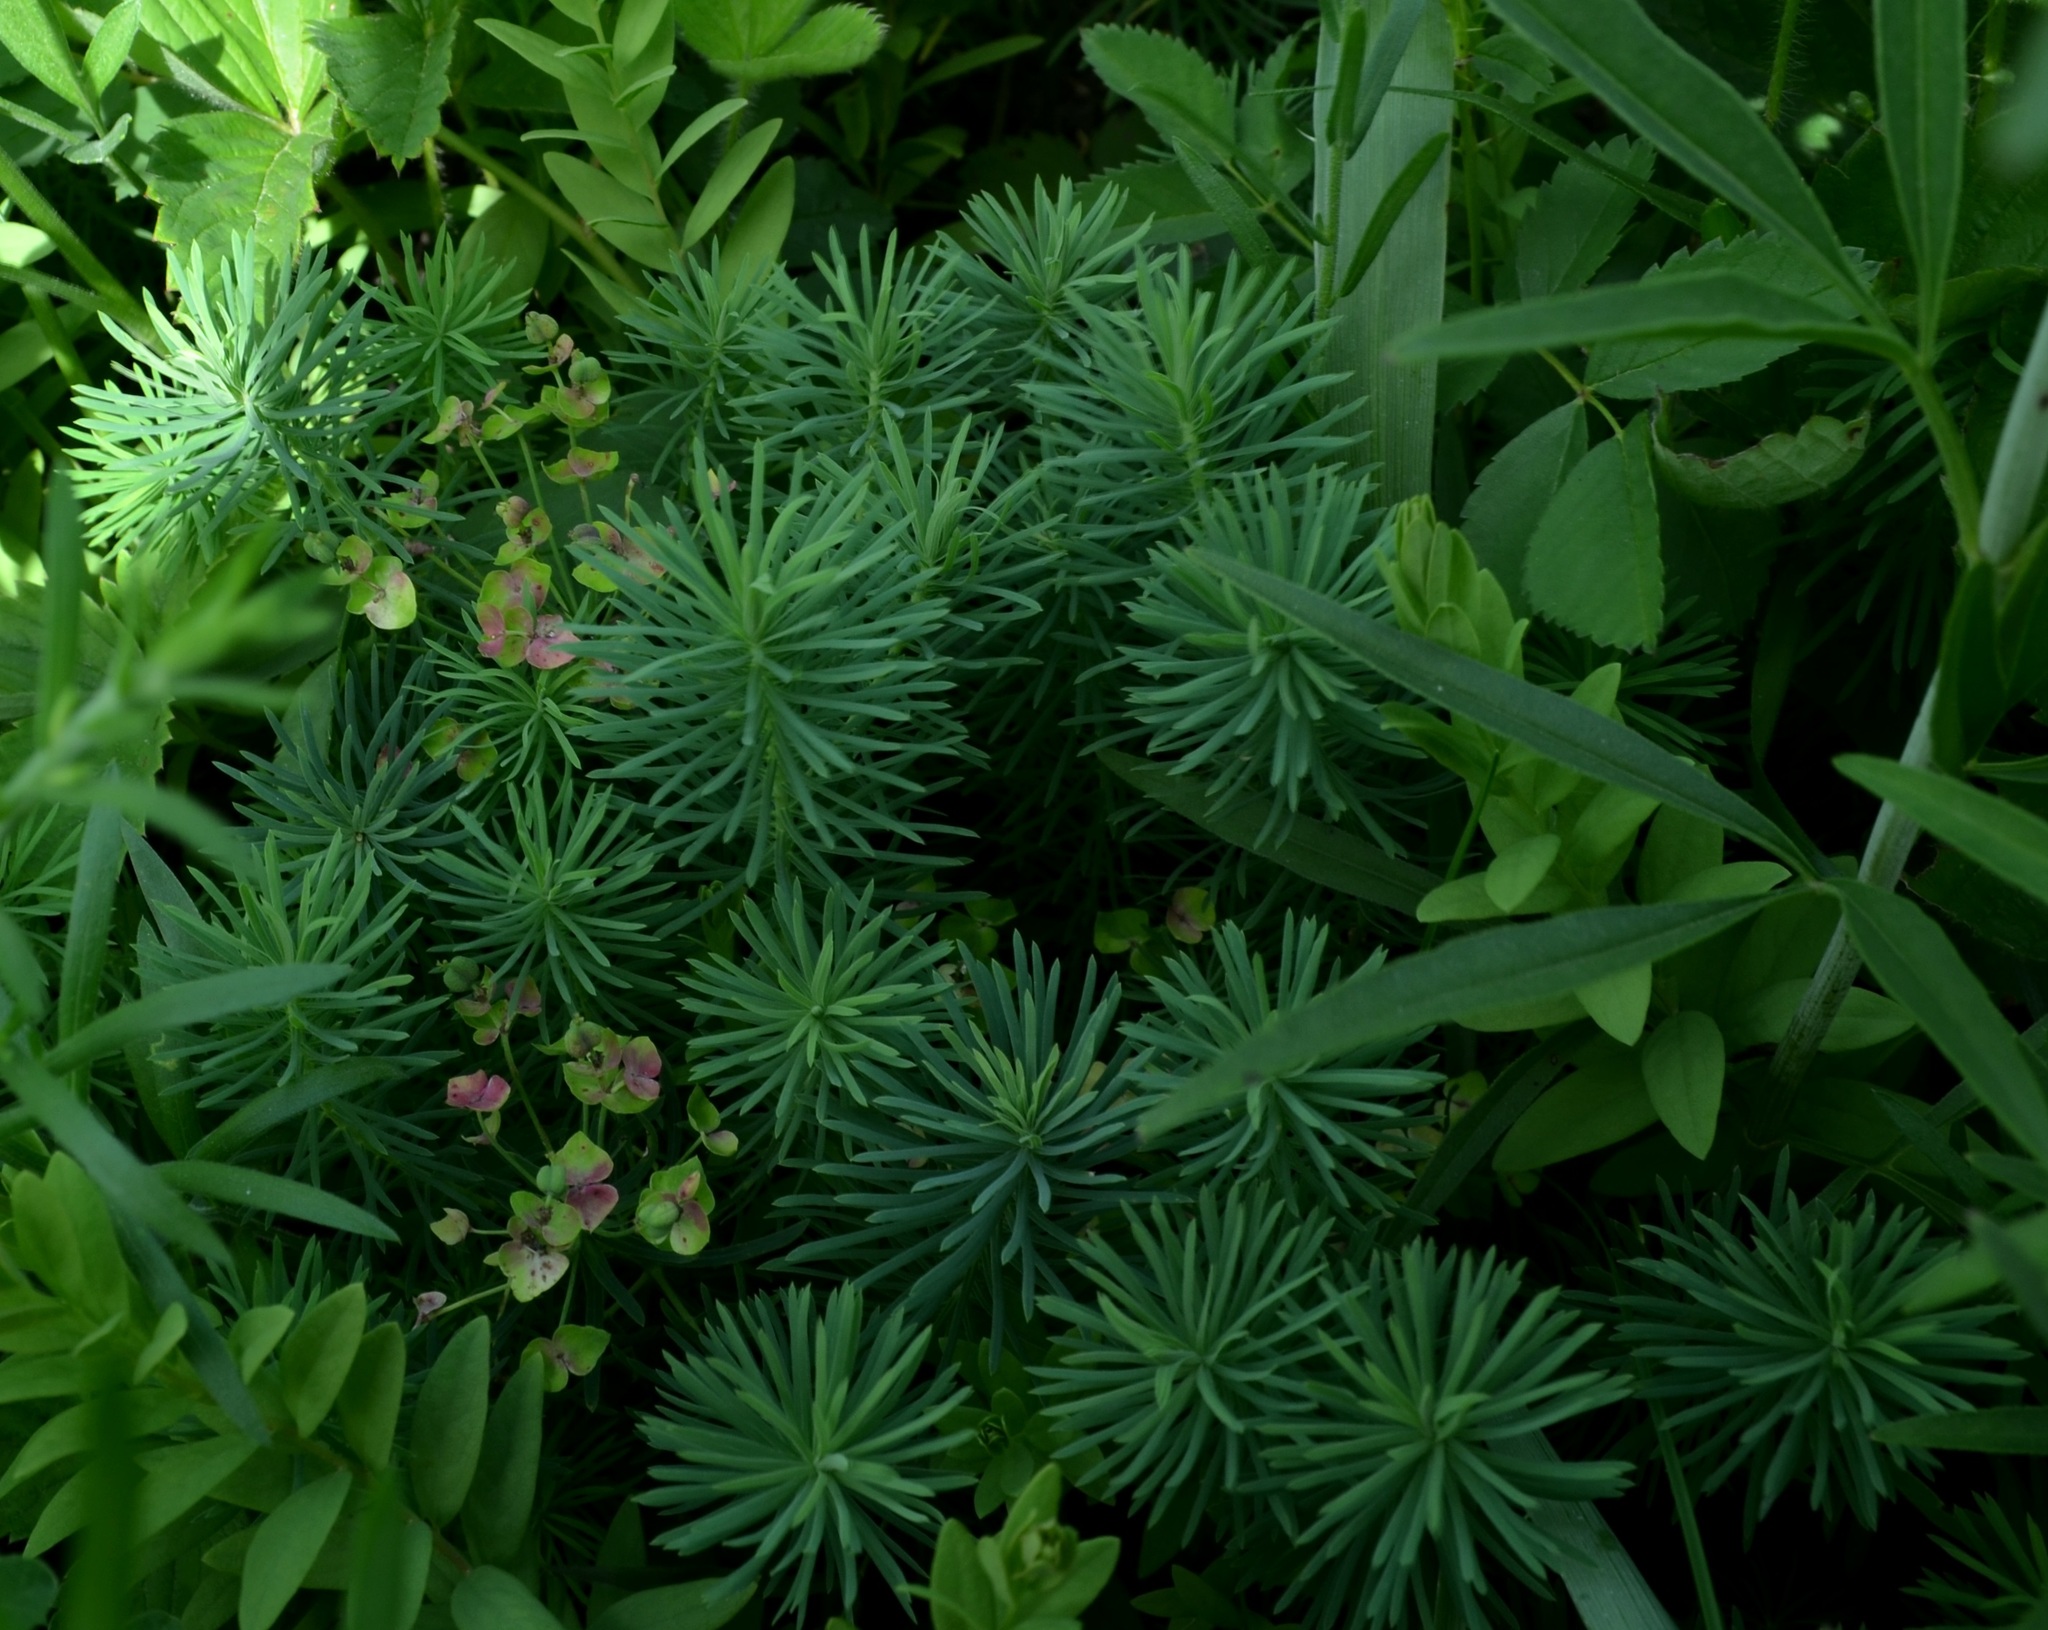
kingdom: Plantae
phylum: Tracheophyta
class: Magnoliopsida
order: Malpighiales
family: Euphorbiaceae
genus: Euphorbia
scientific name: Euphorbia cyparissias
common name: Cypress spurge
